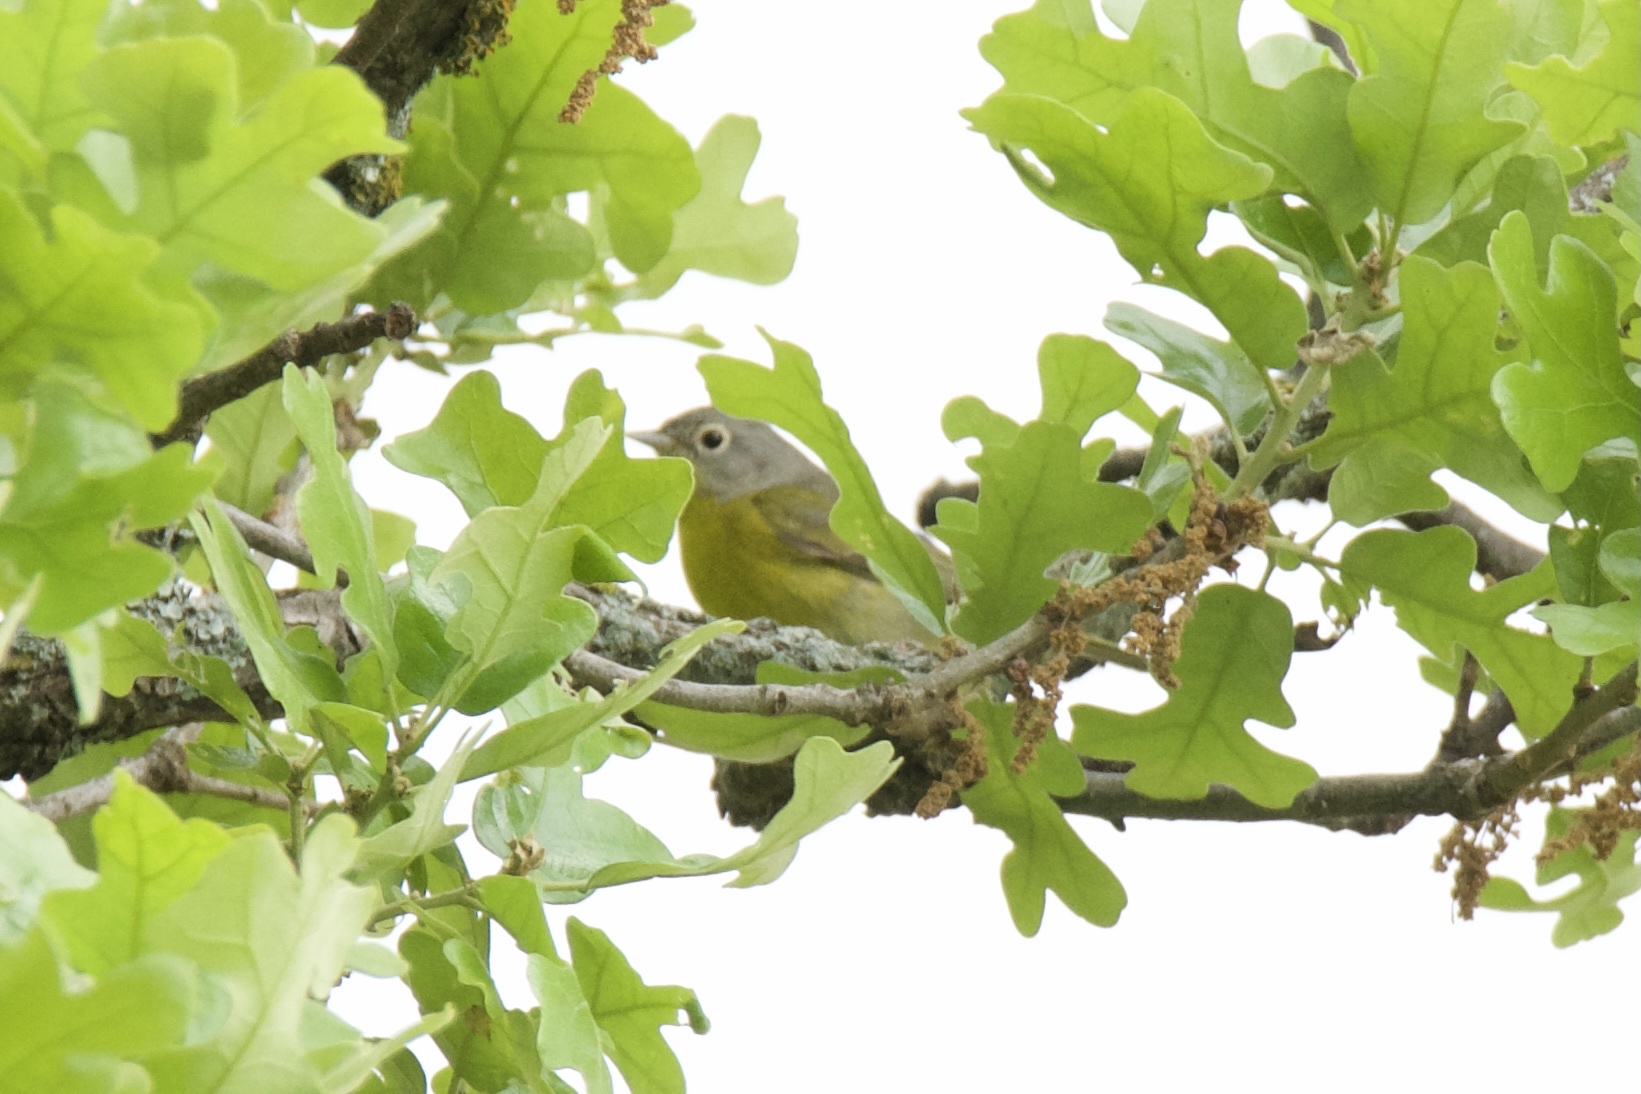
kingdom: Animalia
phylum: Chordata
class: Aves
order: Passeriformes
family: Parulidae
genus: Leiothlypis
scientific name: Leiothlypis ruficapilla
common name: Nashville warbler
